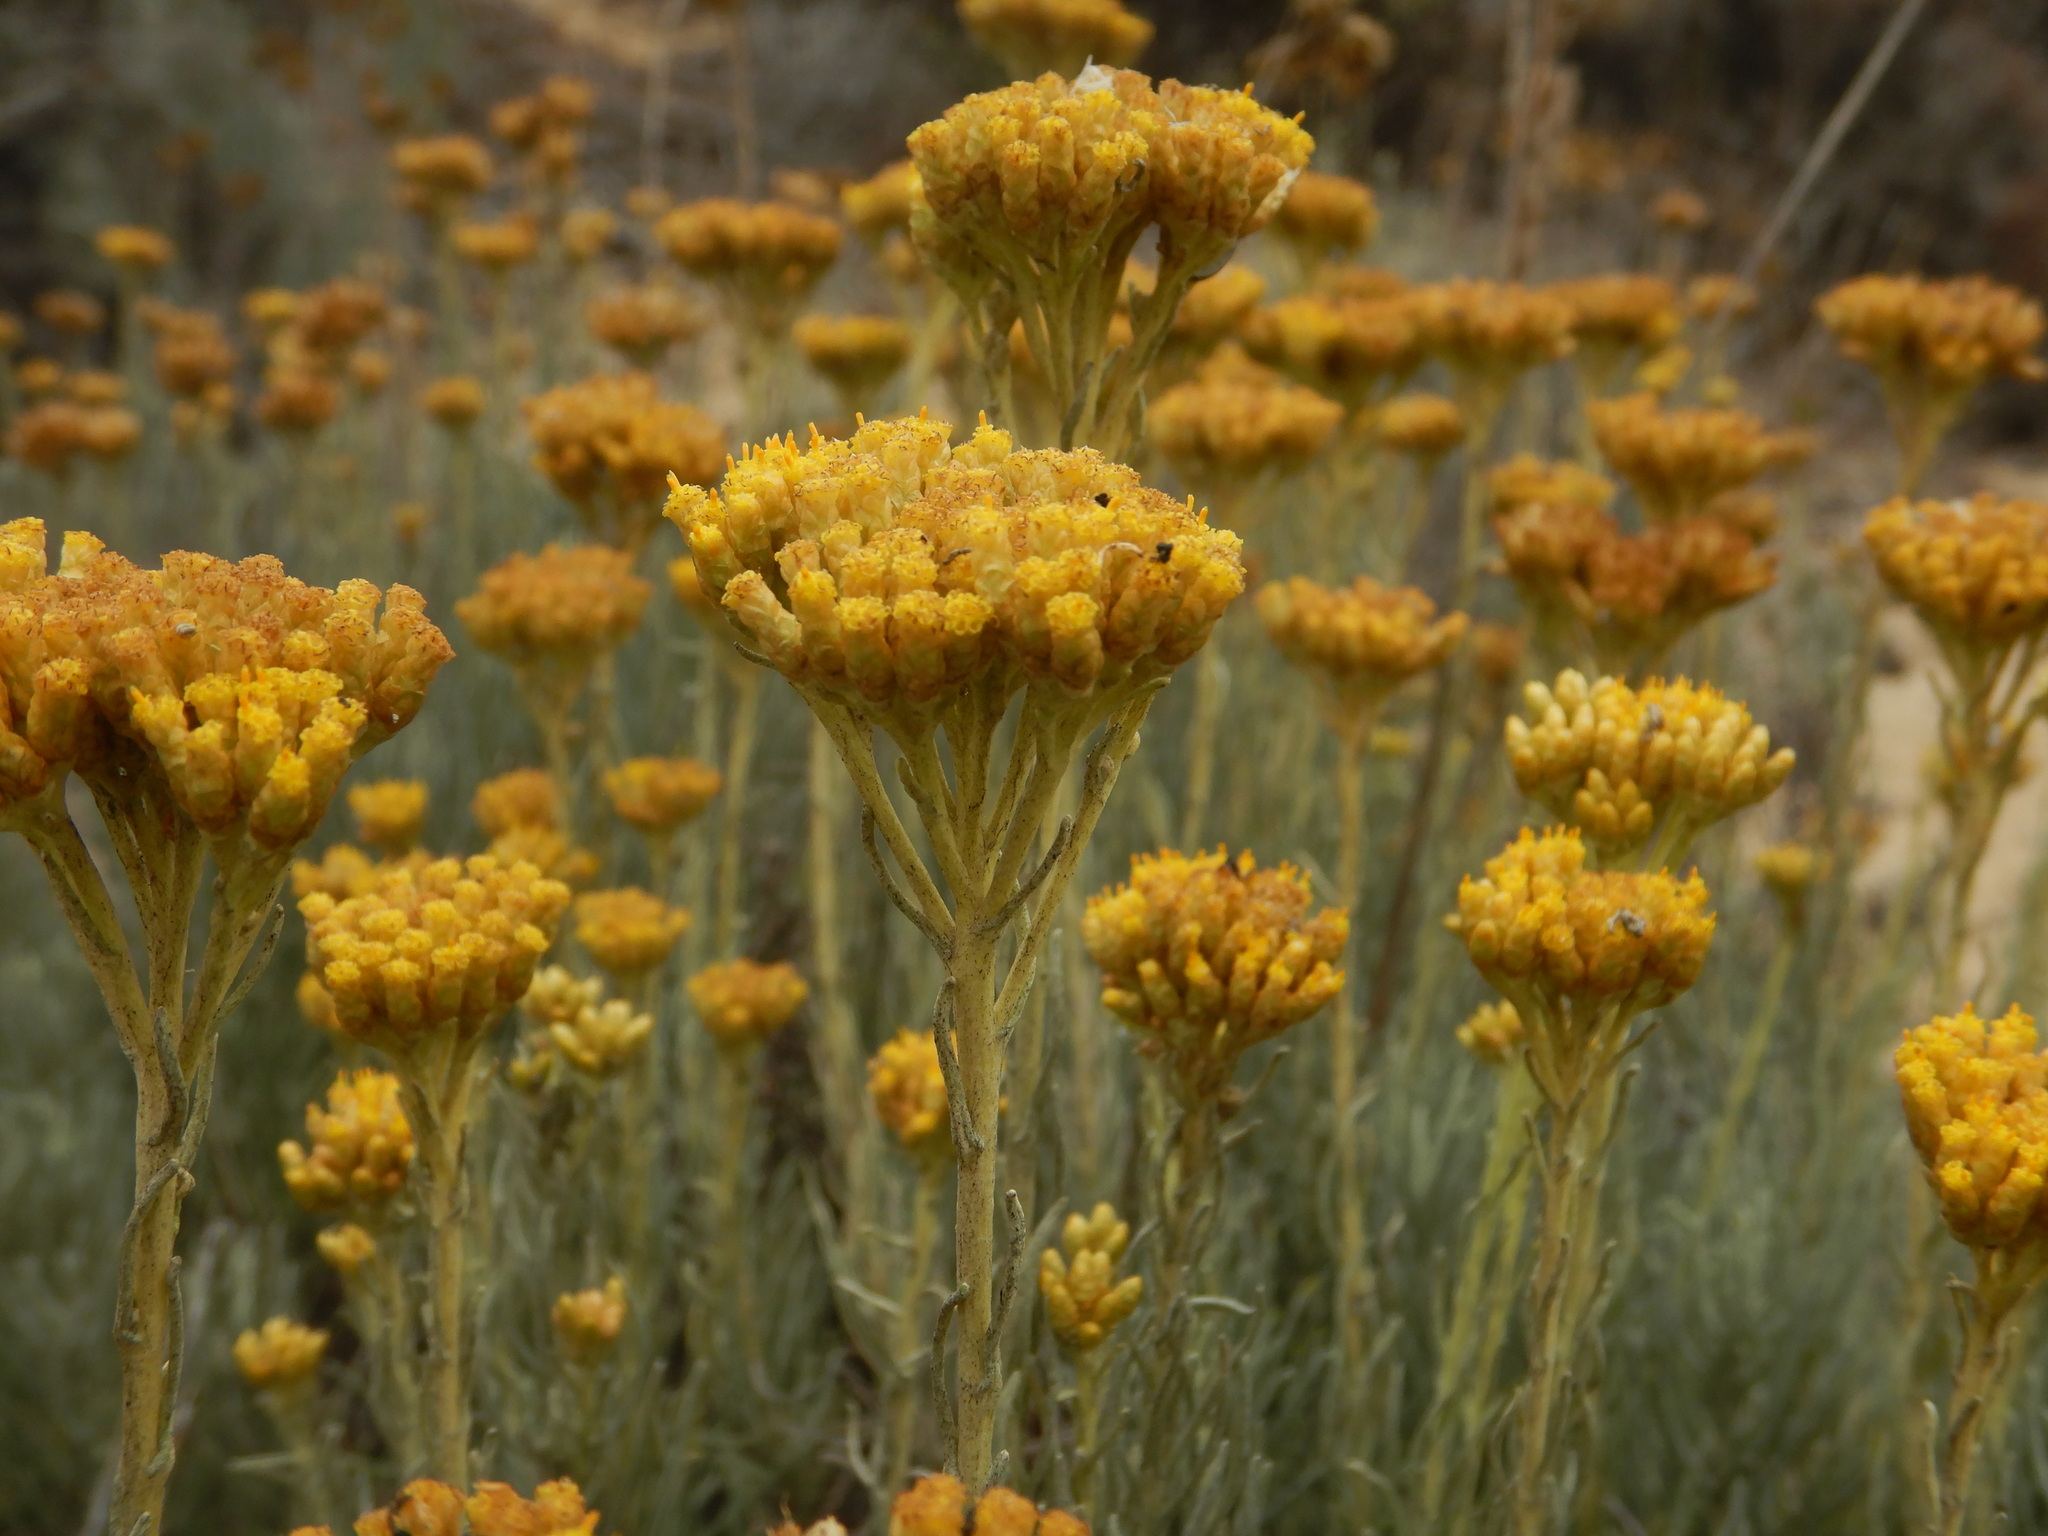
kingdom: Plantae
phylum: Tracheophyta
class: Magnoliopsida
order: Asterales
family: Asteraceae
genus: Helichrysum
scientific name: Helichrysum serotinum
